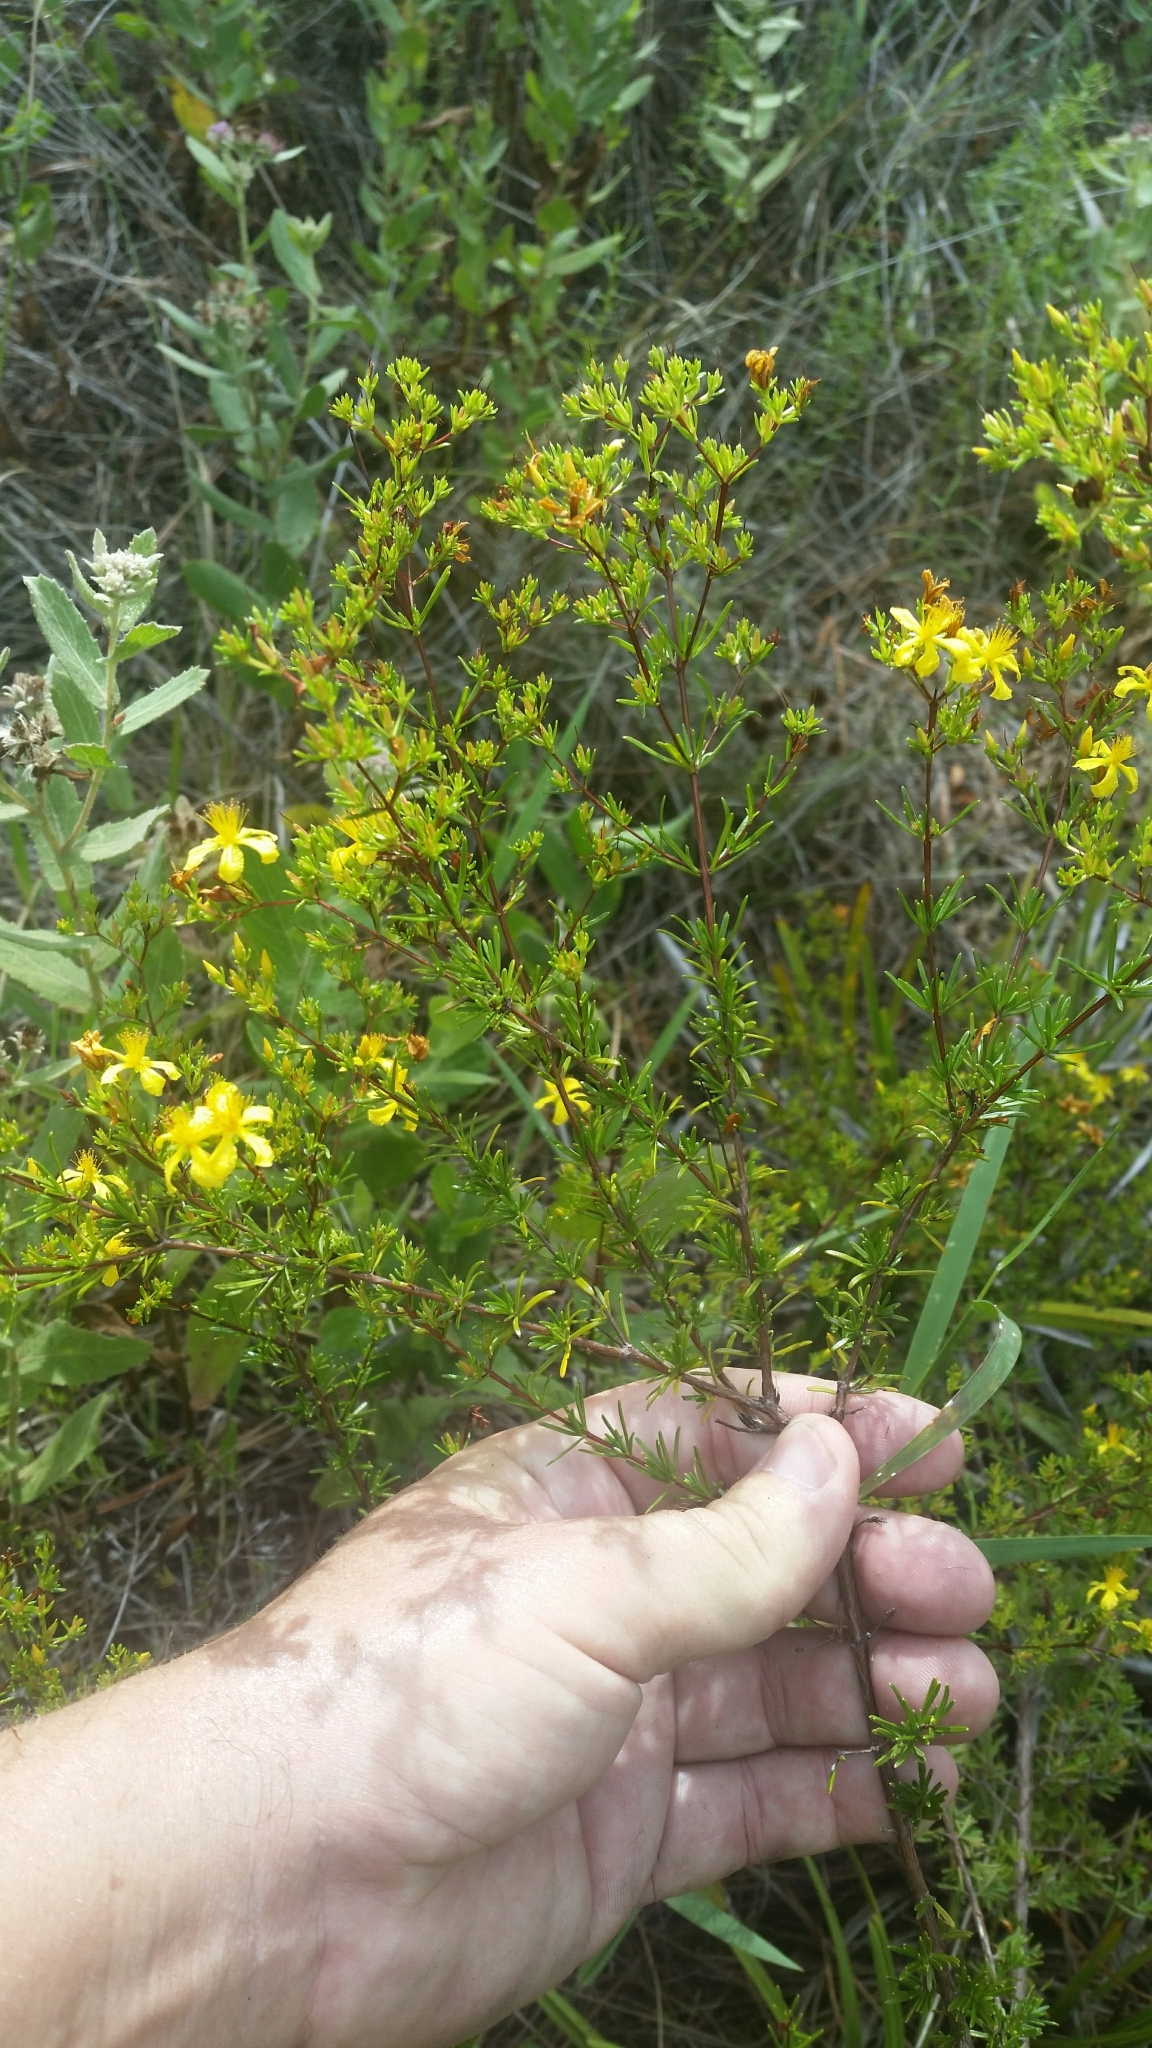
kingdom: Plantae
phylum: Tracheophyta
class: Magnoliopsida
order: Malpighiales
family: Hypericaceae
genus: Hypericum
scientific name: Hypericum limosum
